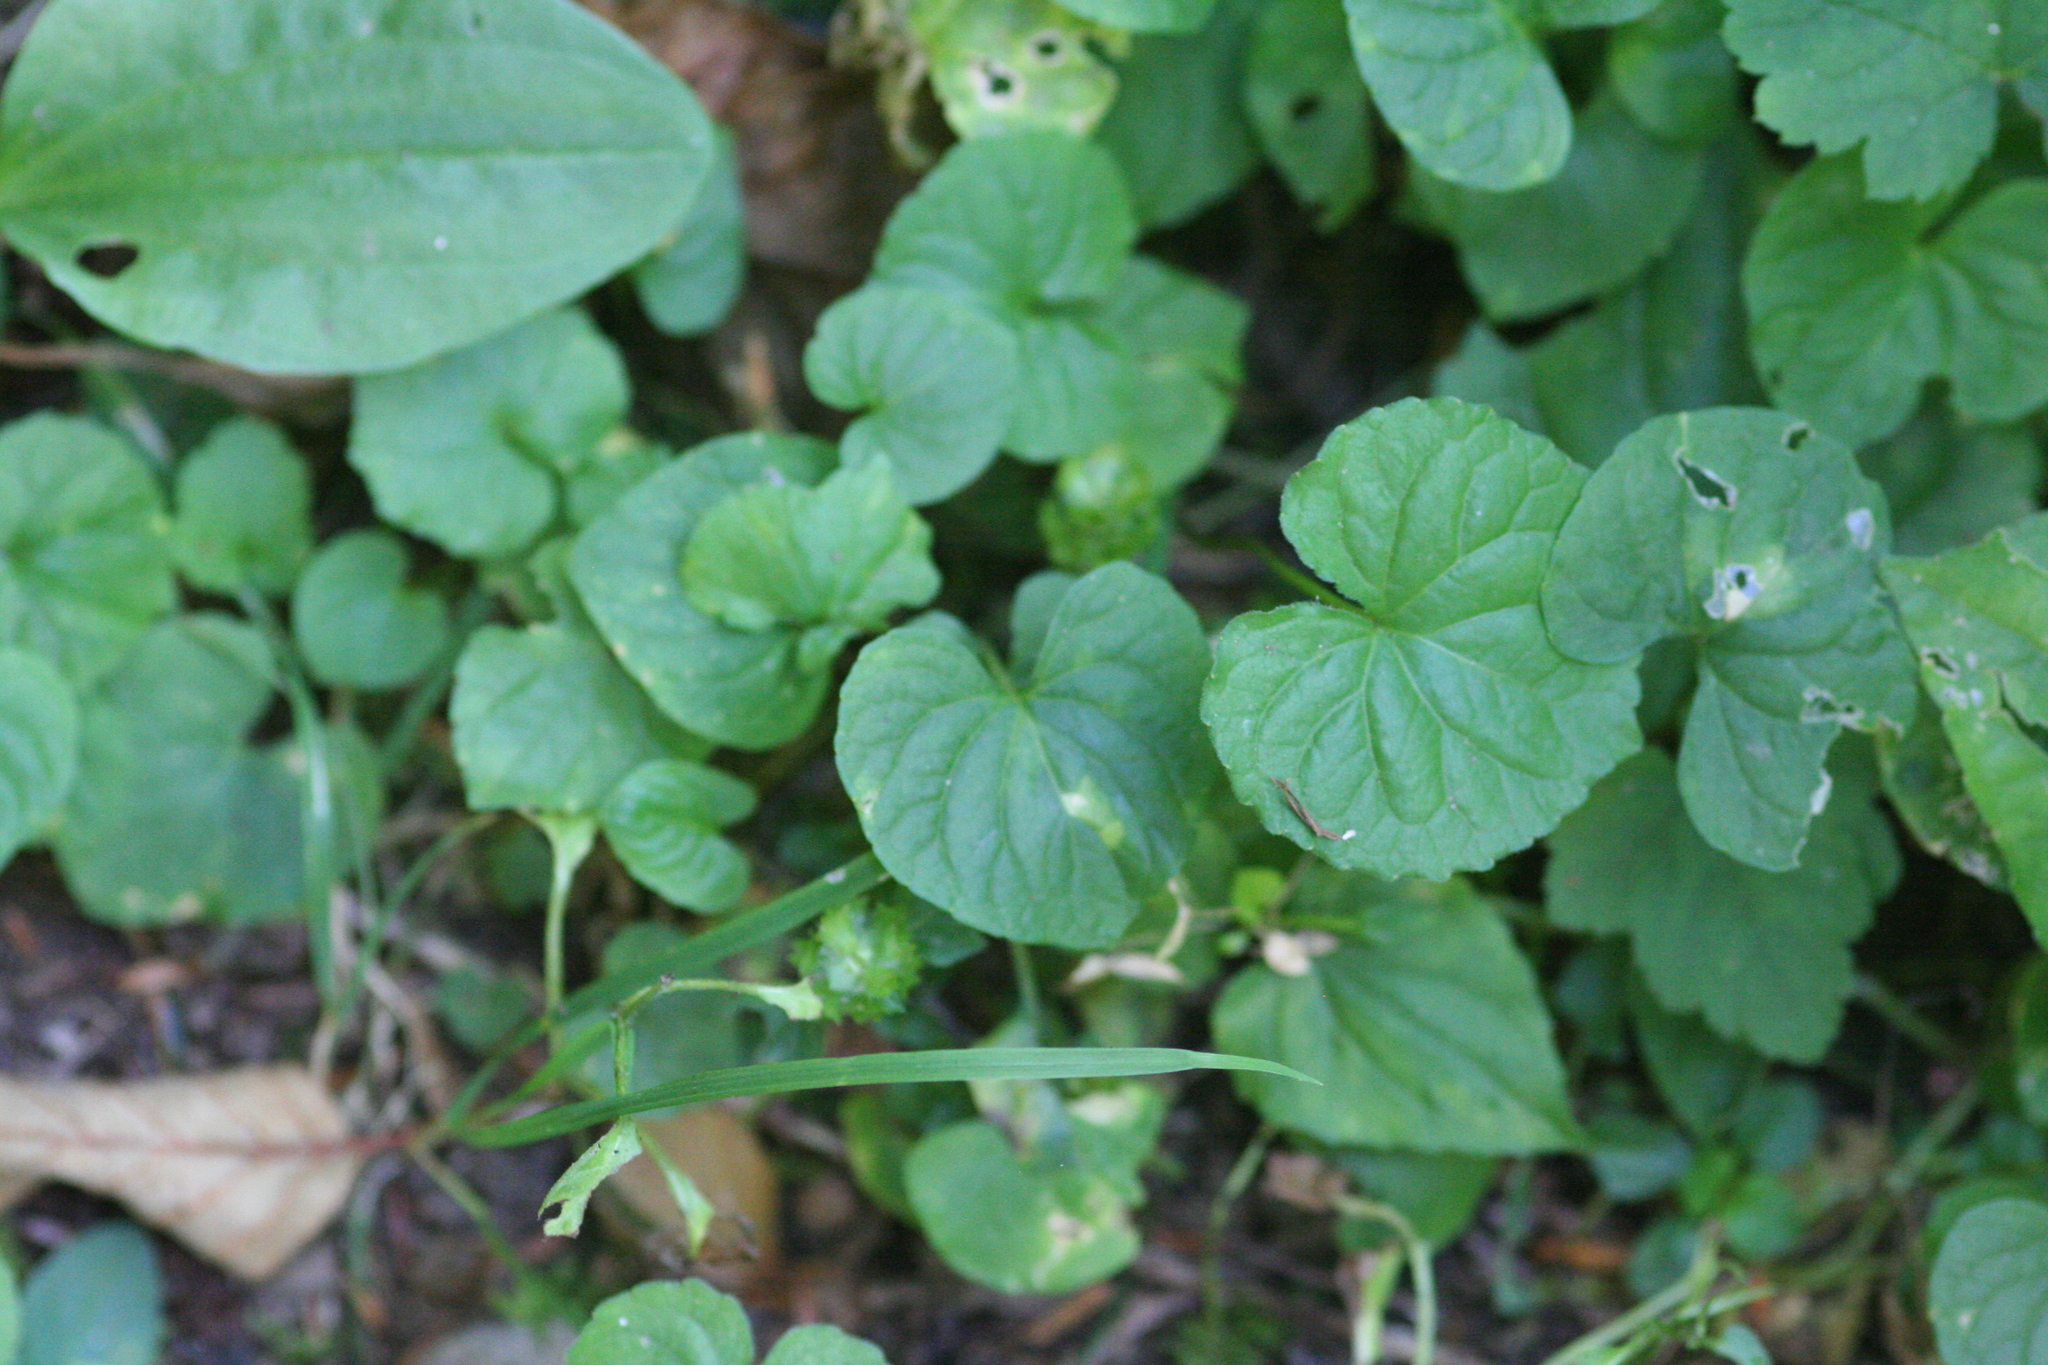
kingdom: Plantae
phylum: Tracheophyta
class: Magnoliopsida
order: Malpighiales
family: Violaceae
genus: Viola
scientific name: Viola glabella
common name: Stream violet
